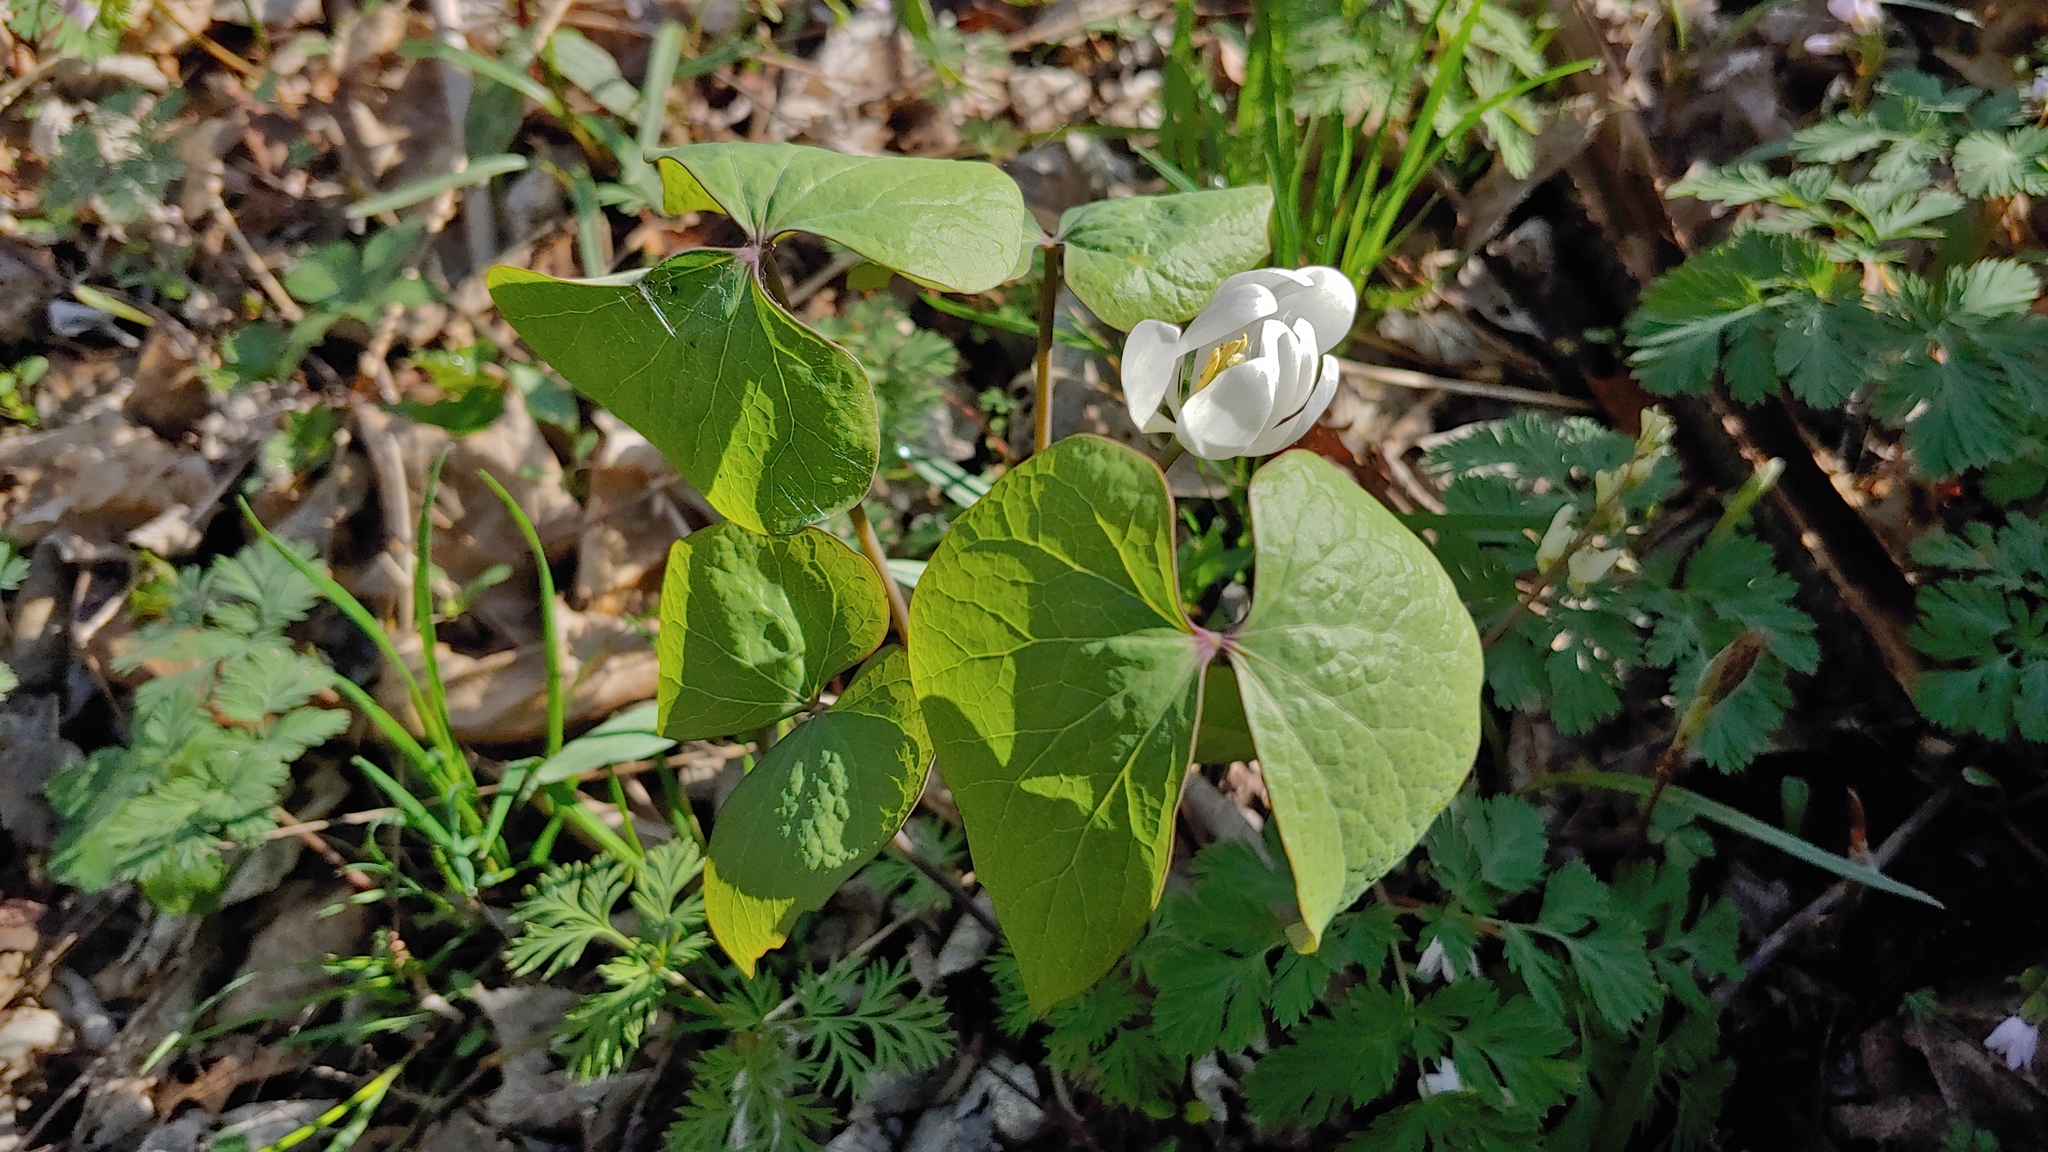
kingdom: Plantae
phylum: Tracheophyta
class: Magnoliopsida
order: Ranunculales
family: Berberidaceae
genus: Jeffersonia
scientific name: Jeffersonia diphylla
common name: Rheumatism-root
